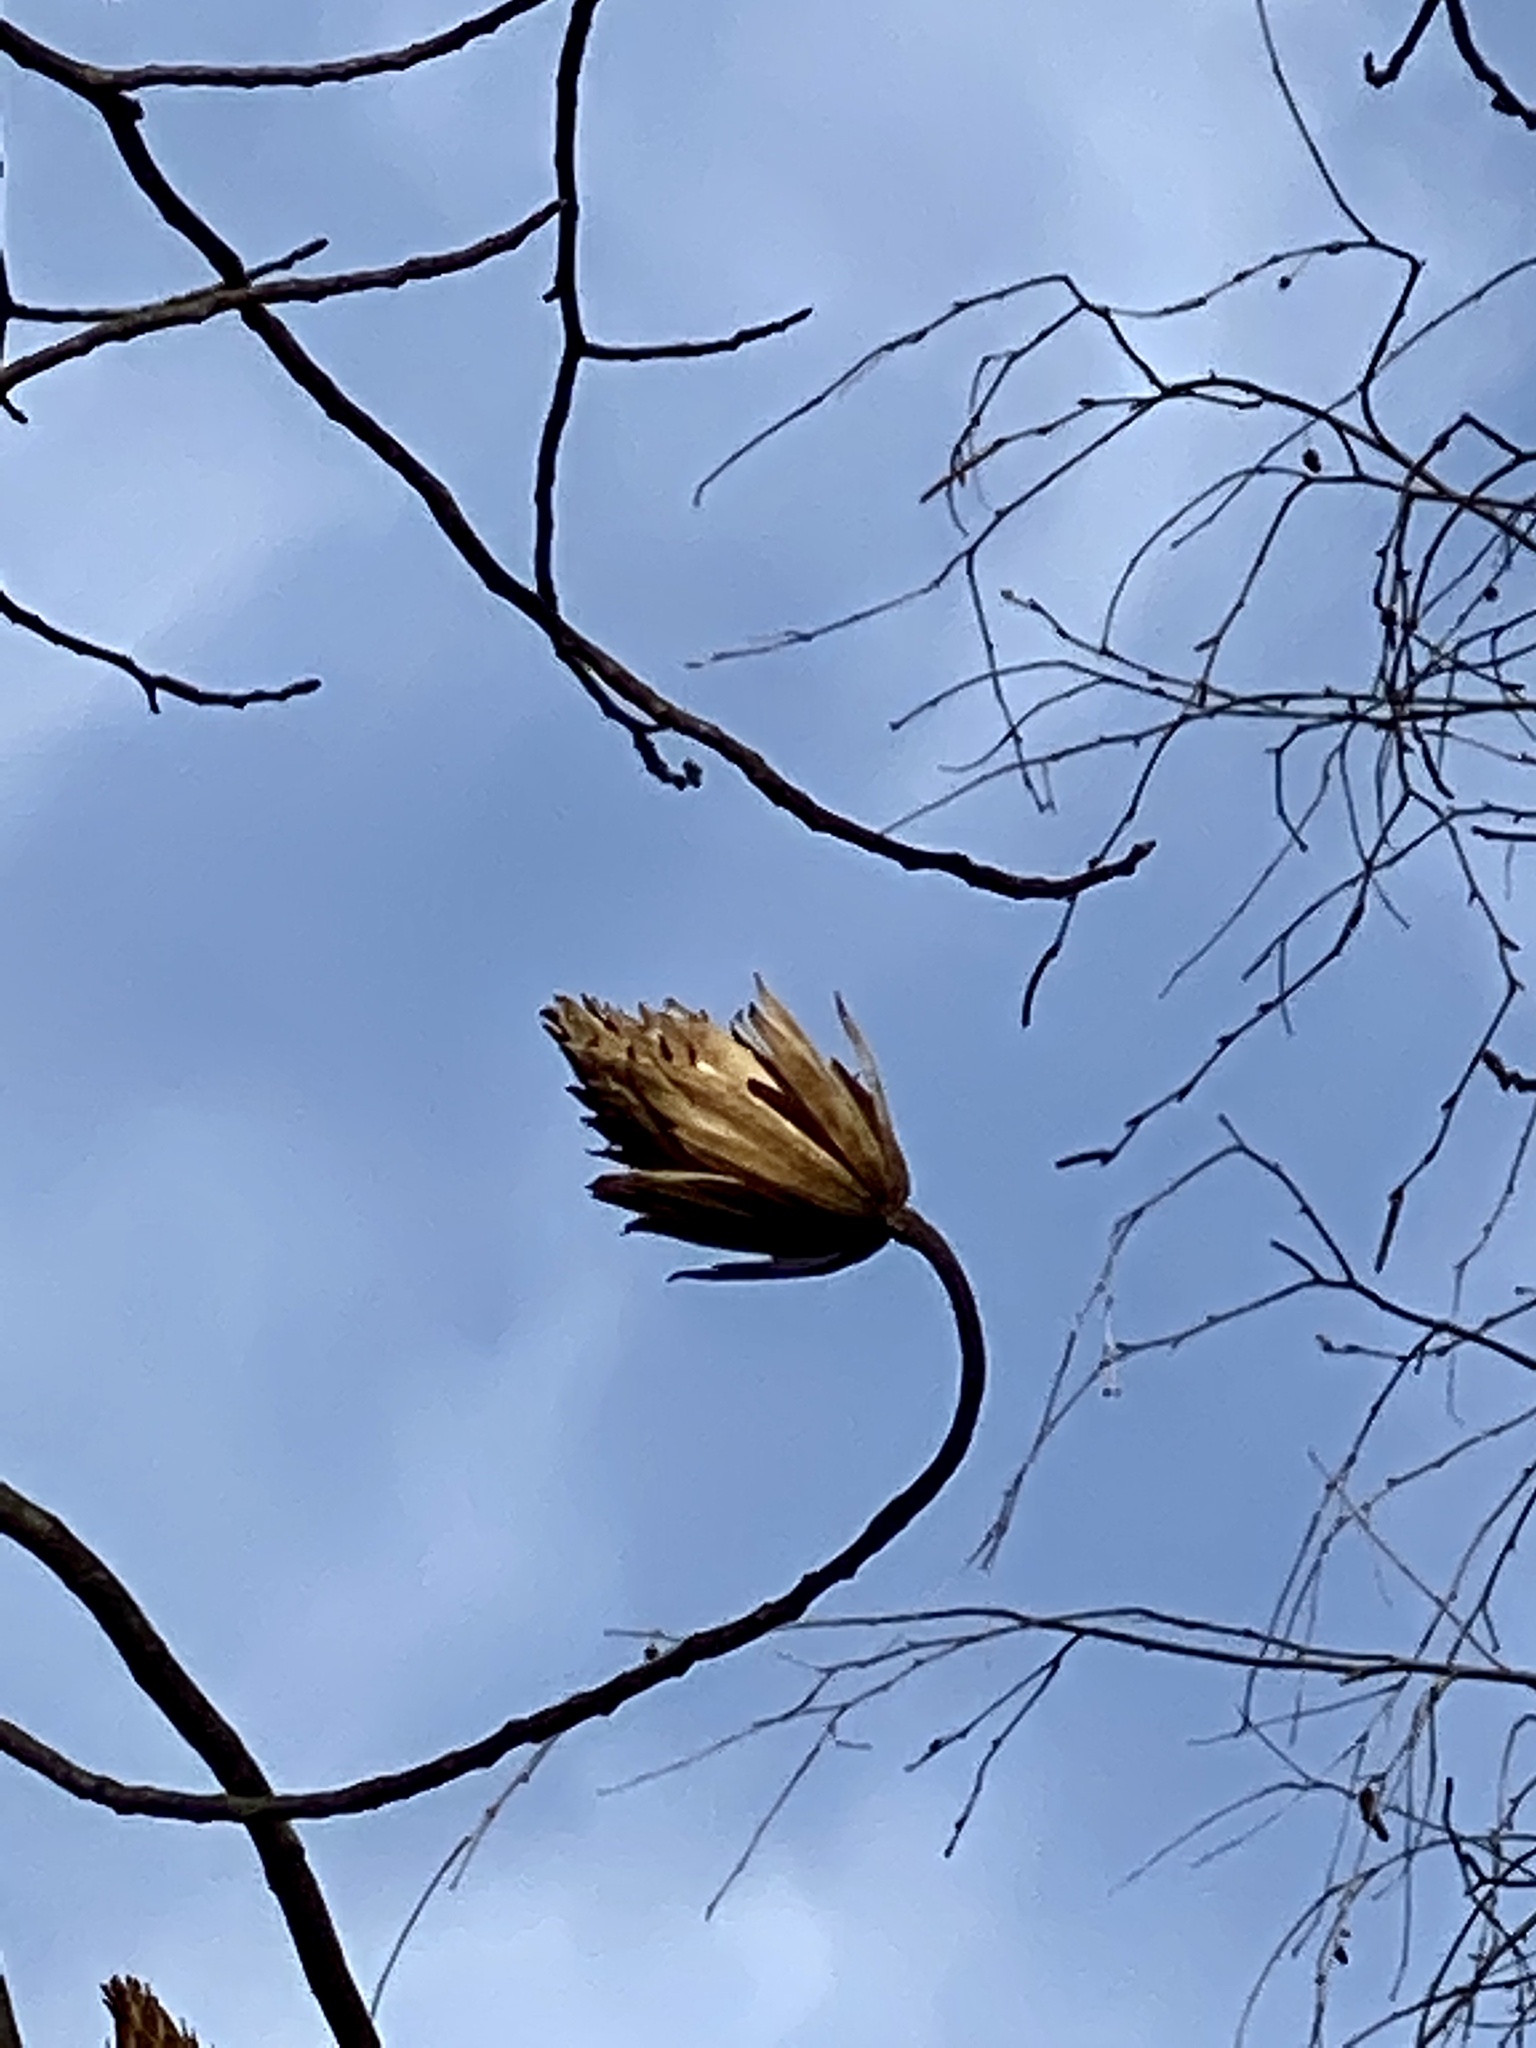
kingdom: Plantae
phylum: Tracheophyta
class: Magnoliopsida
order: Magnoliales
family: Magnoliaceae
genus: Liriodendron
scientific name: Liriodendron tulipifera
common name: Tulip tree
